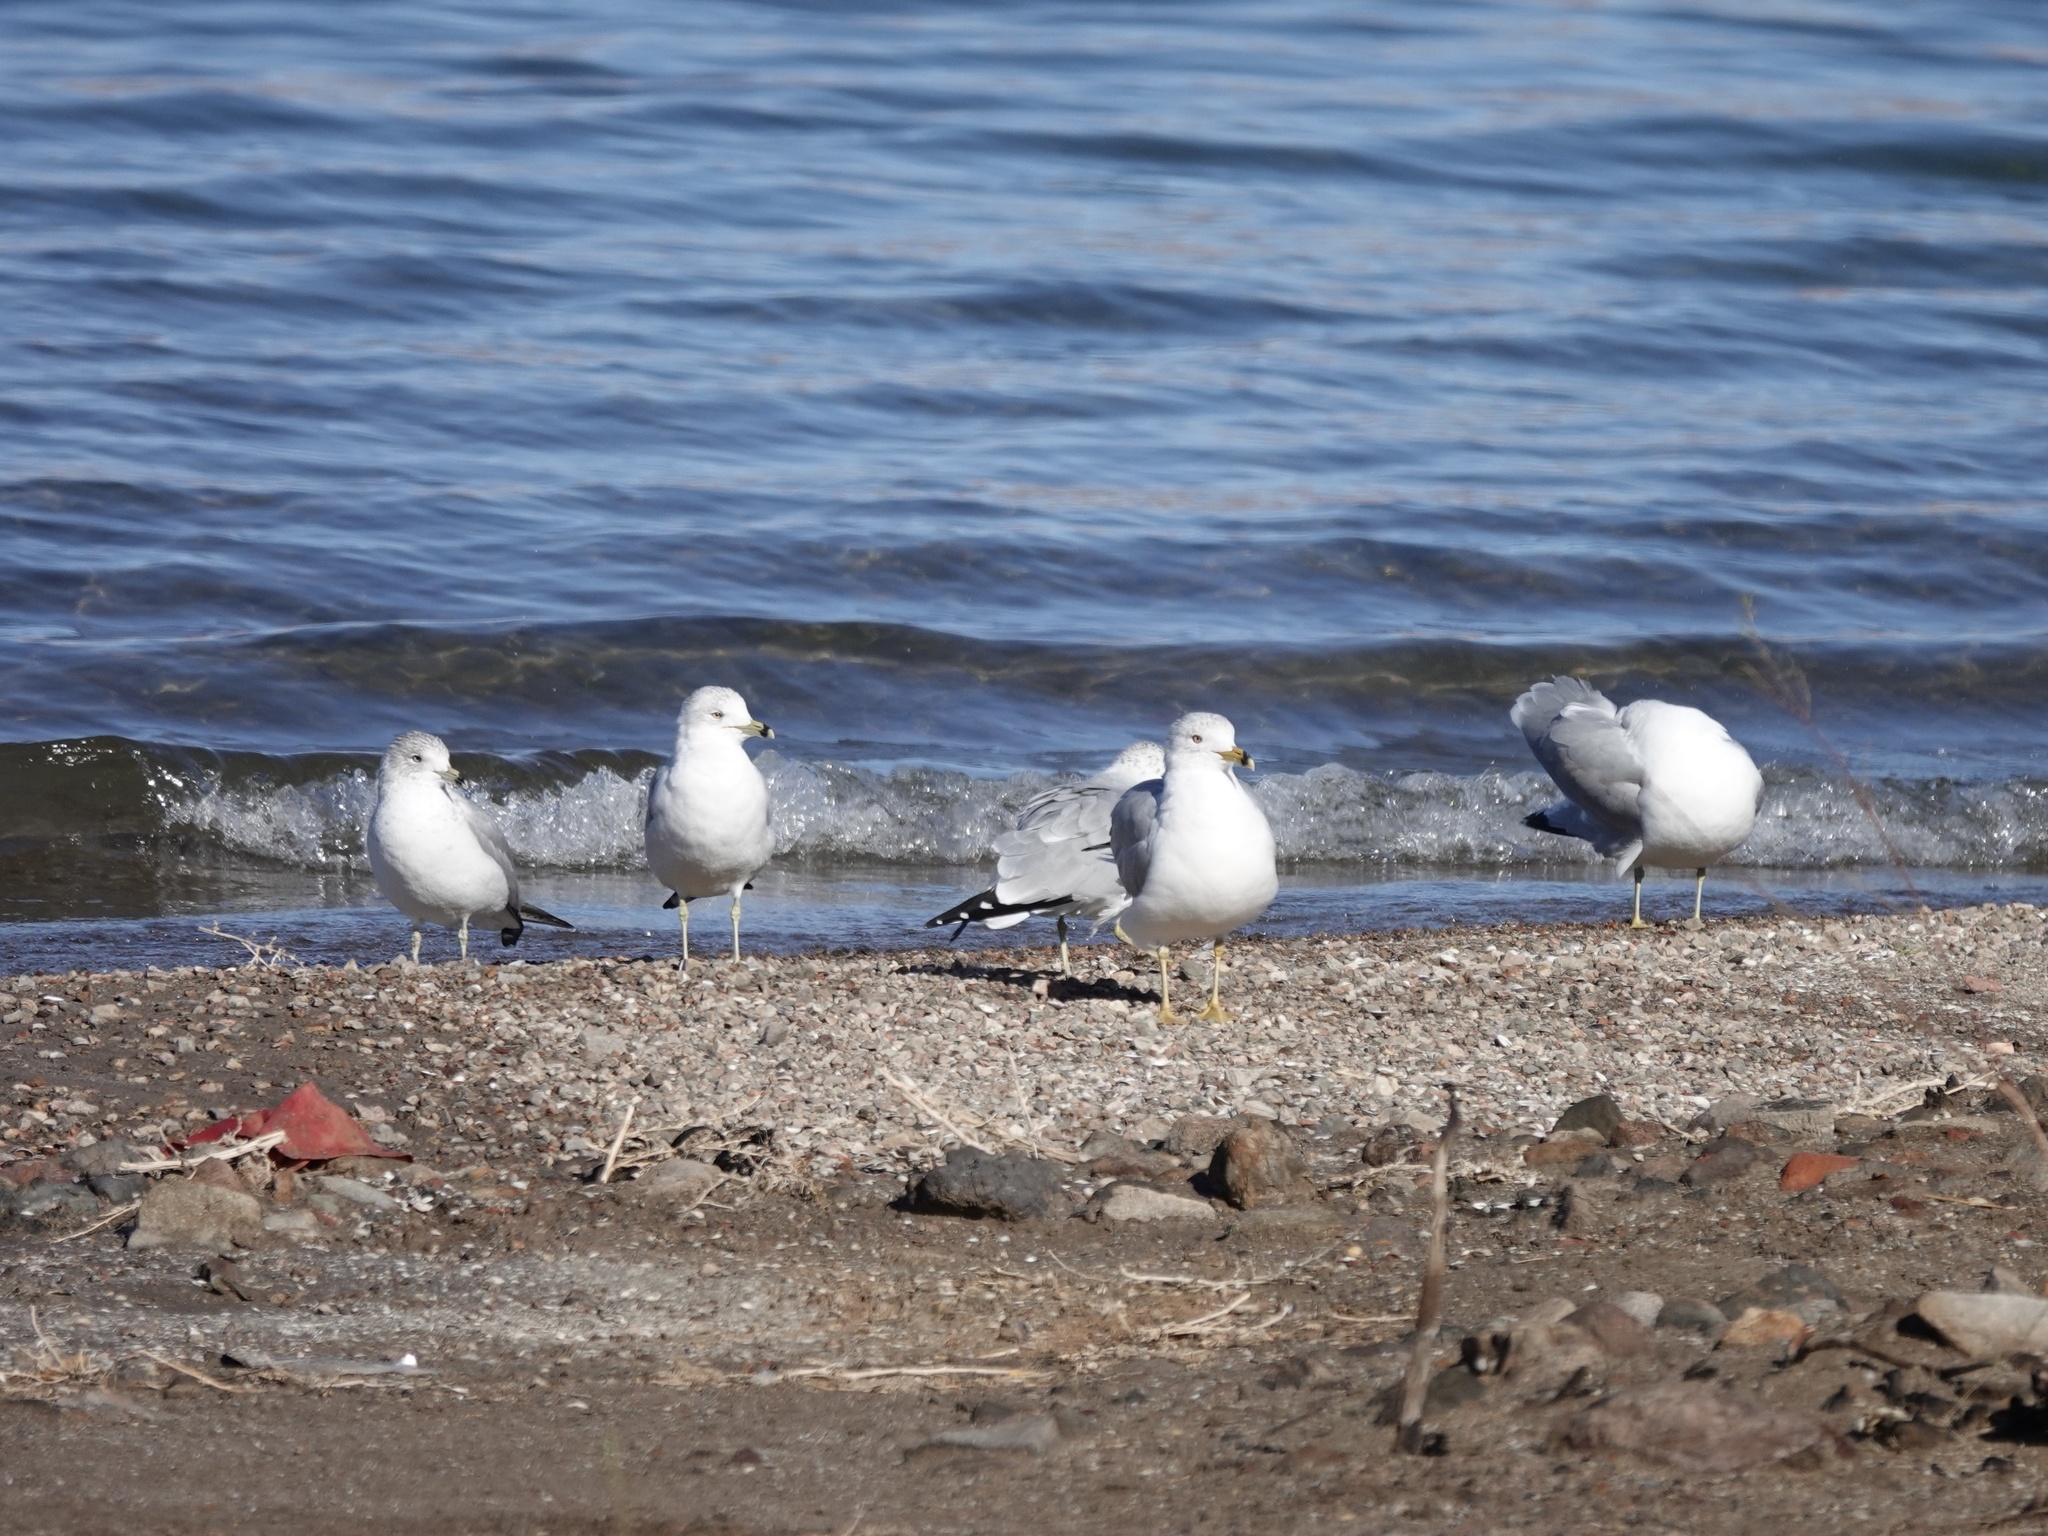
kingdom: Animalia
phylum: Chordata
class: Aves
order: Charadriiformes
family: Laridae
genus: Larus
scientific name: Larus delawarensis
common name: Ring-billed gull
